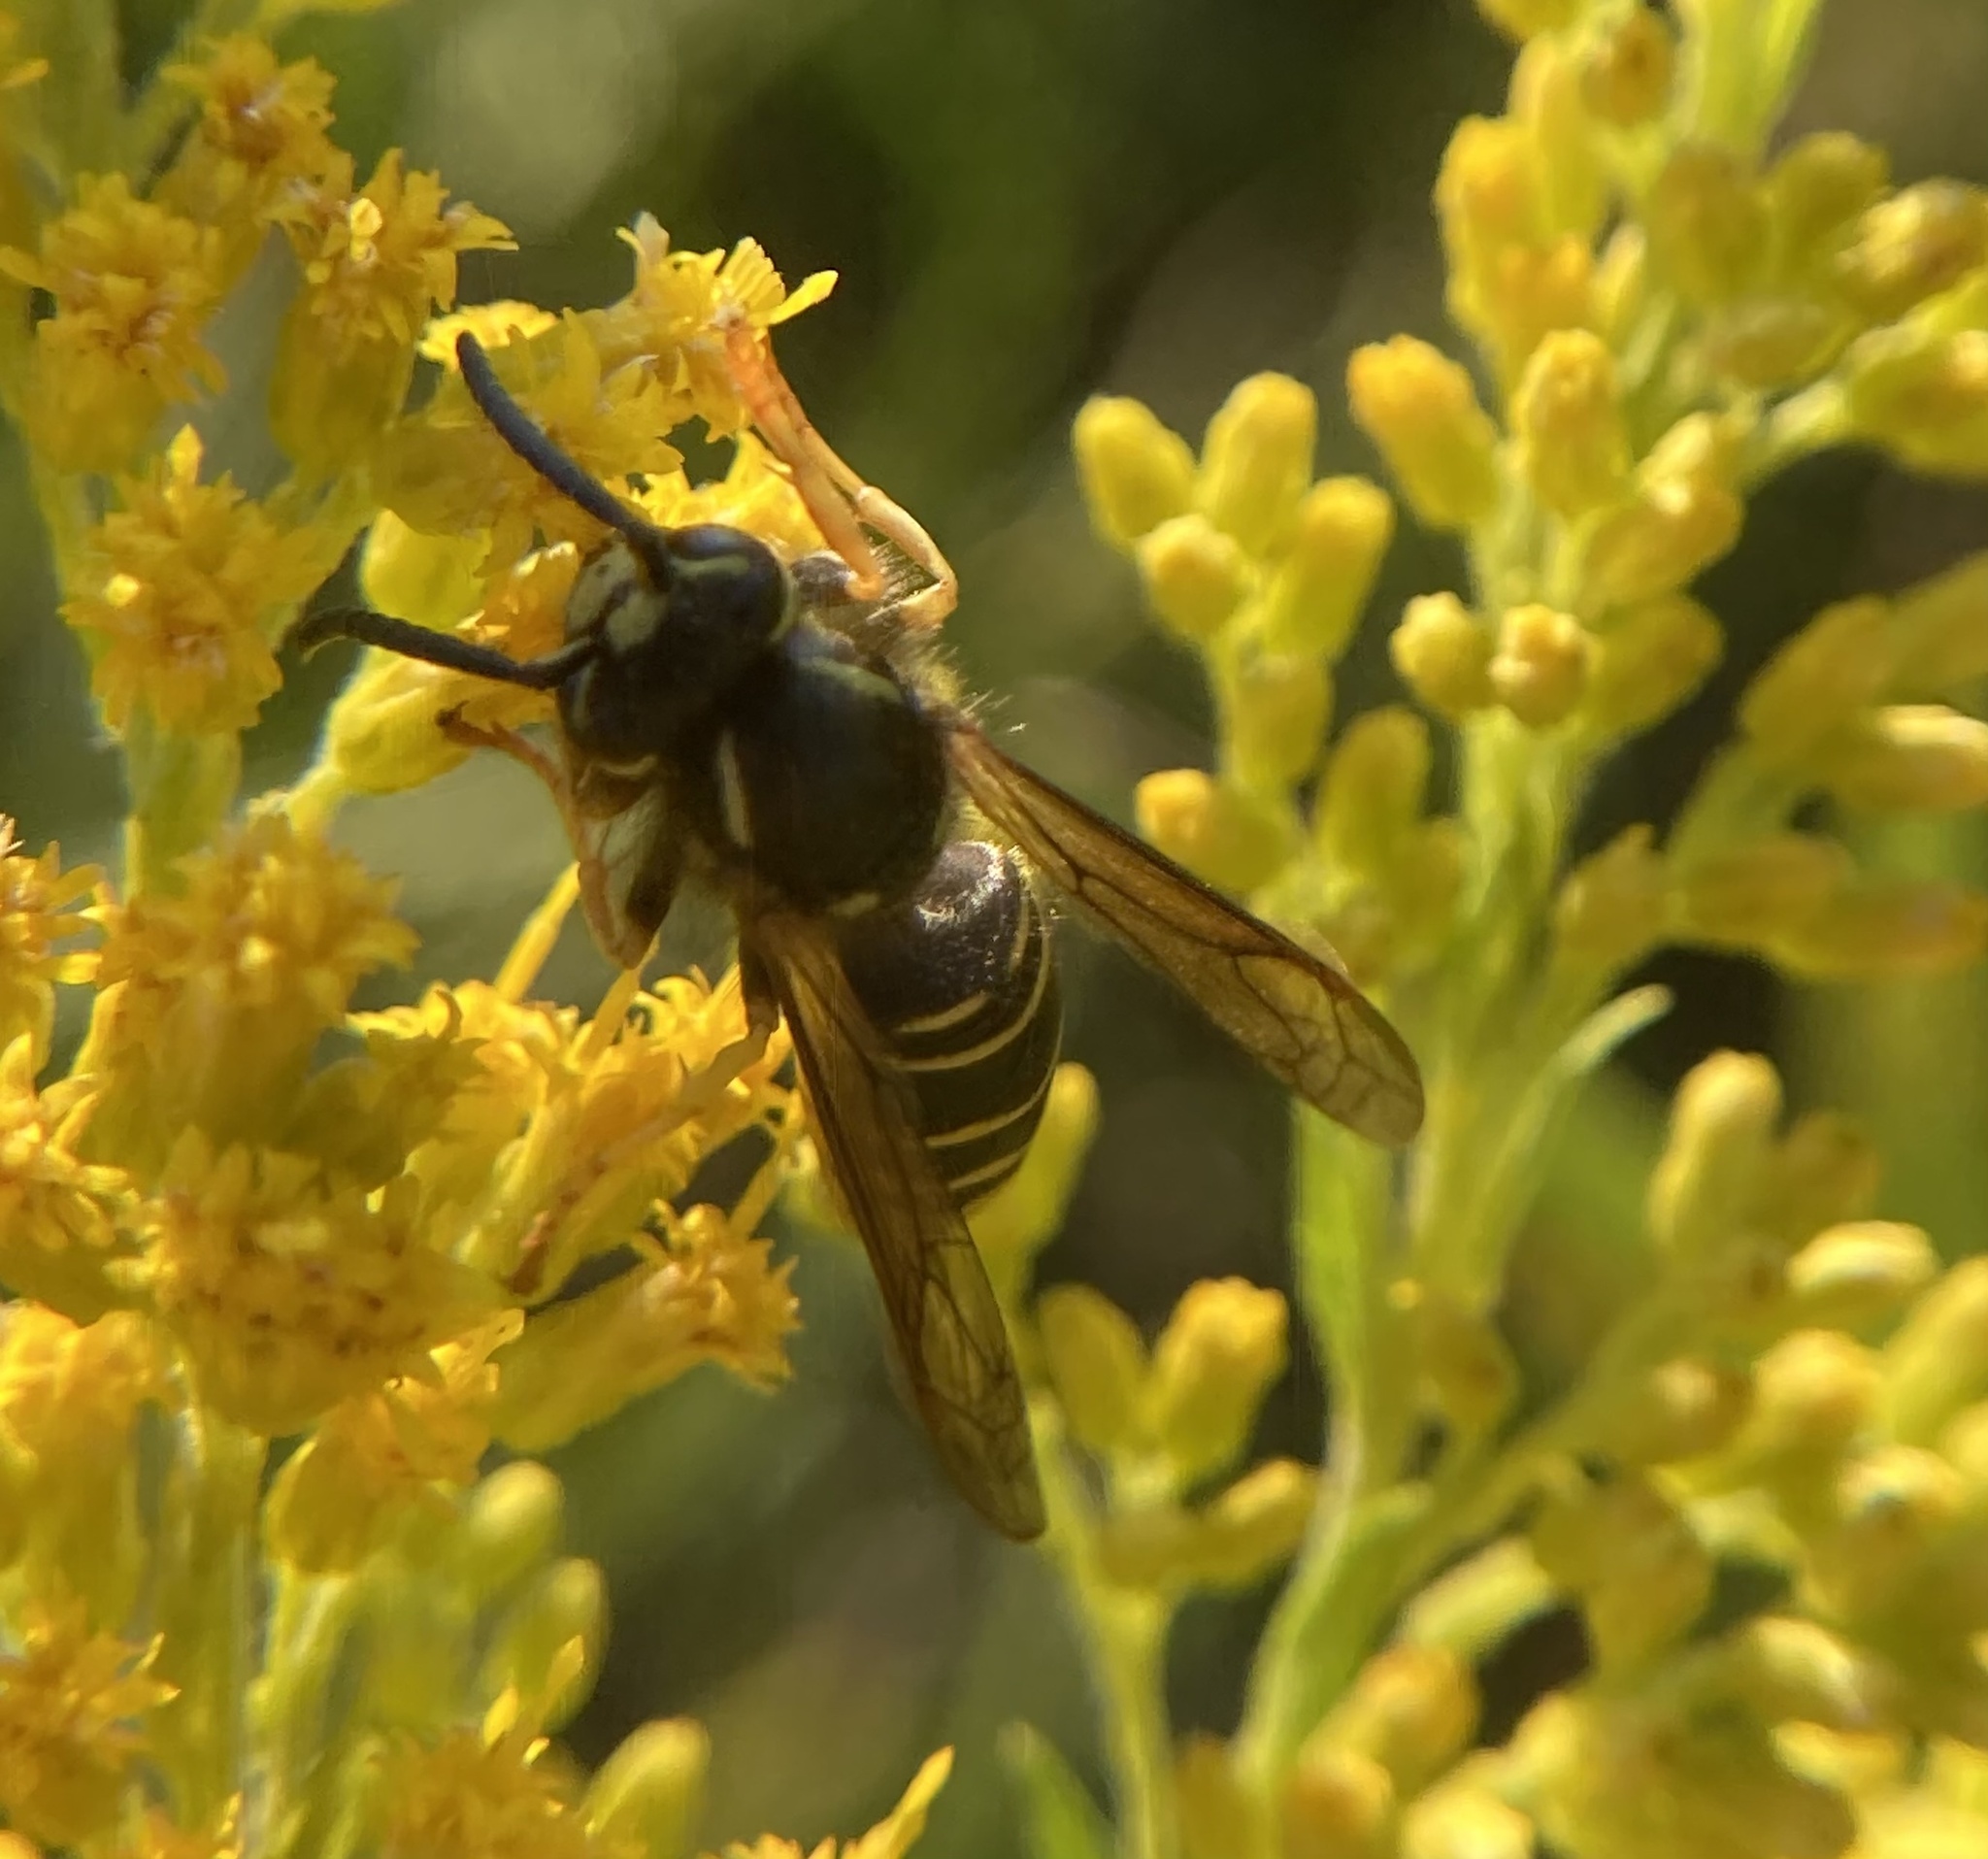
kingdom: Animalia
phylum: Arthropoda
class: Insecta
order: Hymenoptera
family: Vespidae
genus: Vespula
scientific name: Vespula vidua
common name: Widow yellowjacket
